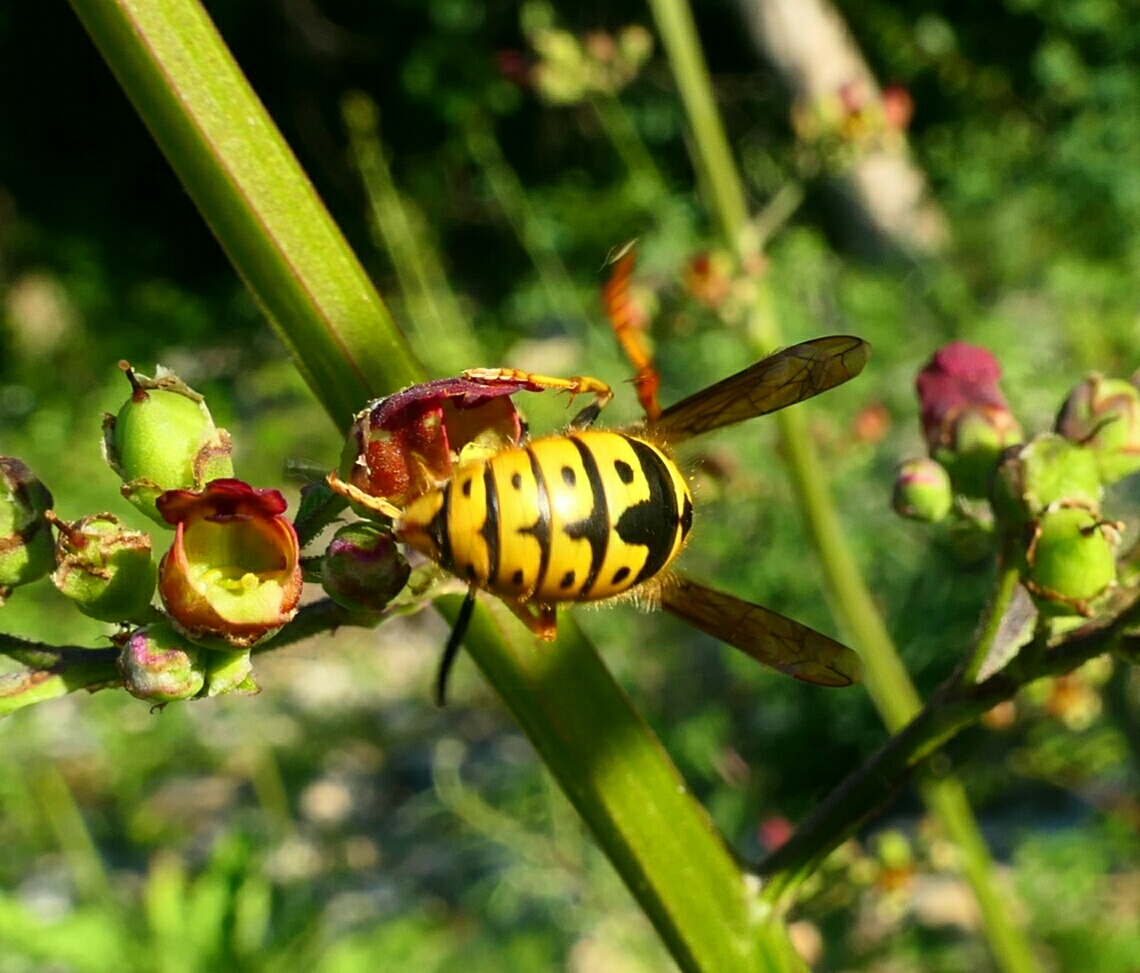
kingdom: Animalia
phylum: Arthropoda
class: Insecta
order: Hymenoptera
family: Vespidae
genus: Vespula
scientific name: Vespula germanica
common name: German wasp
